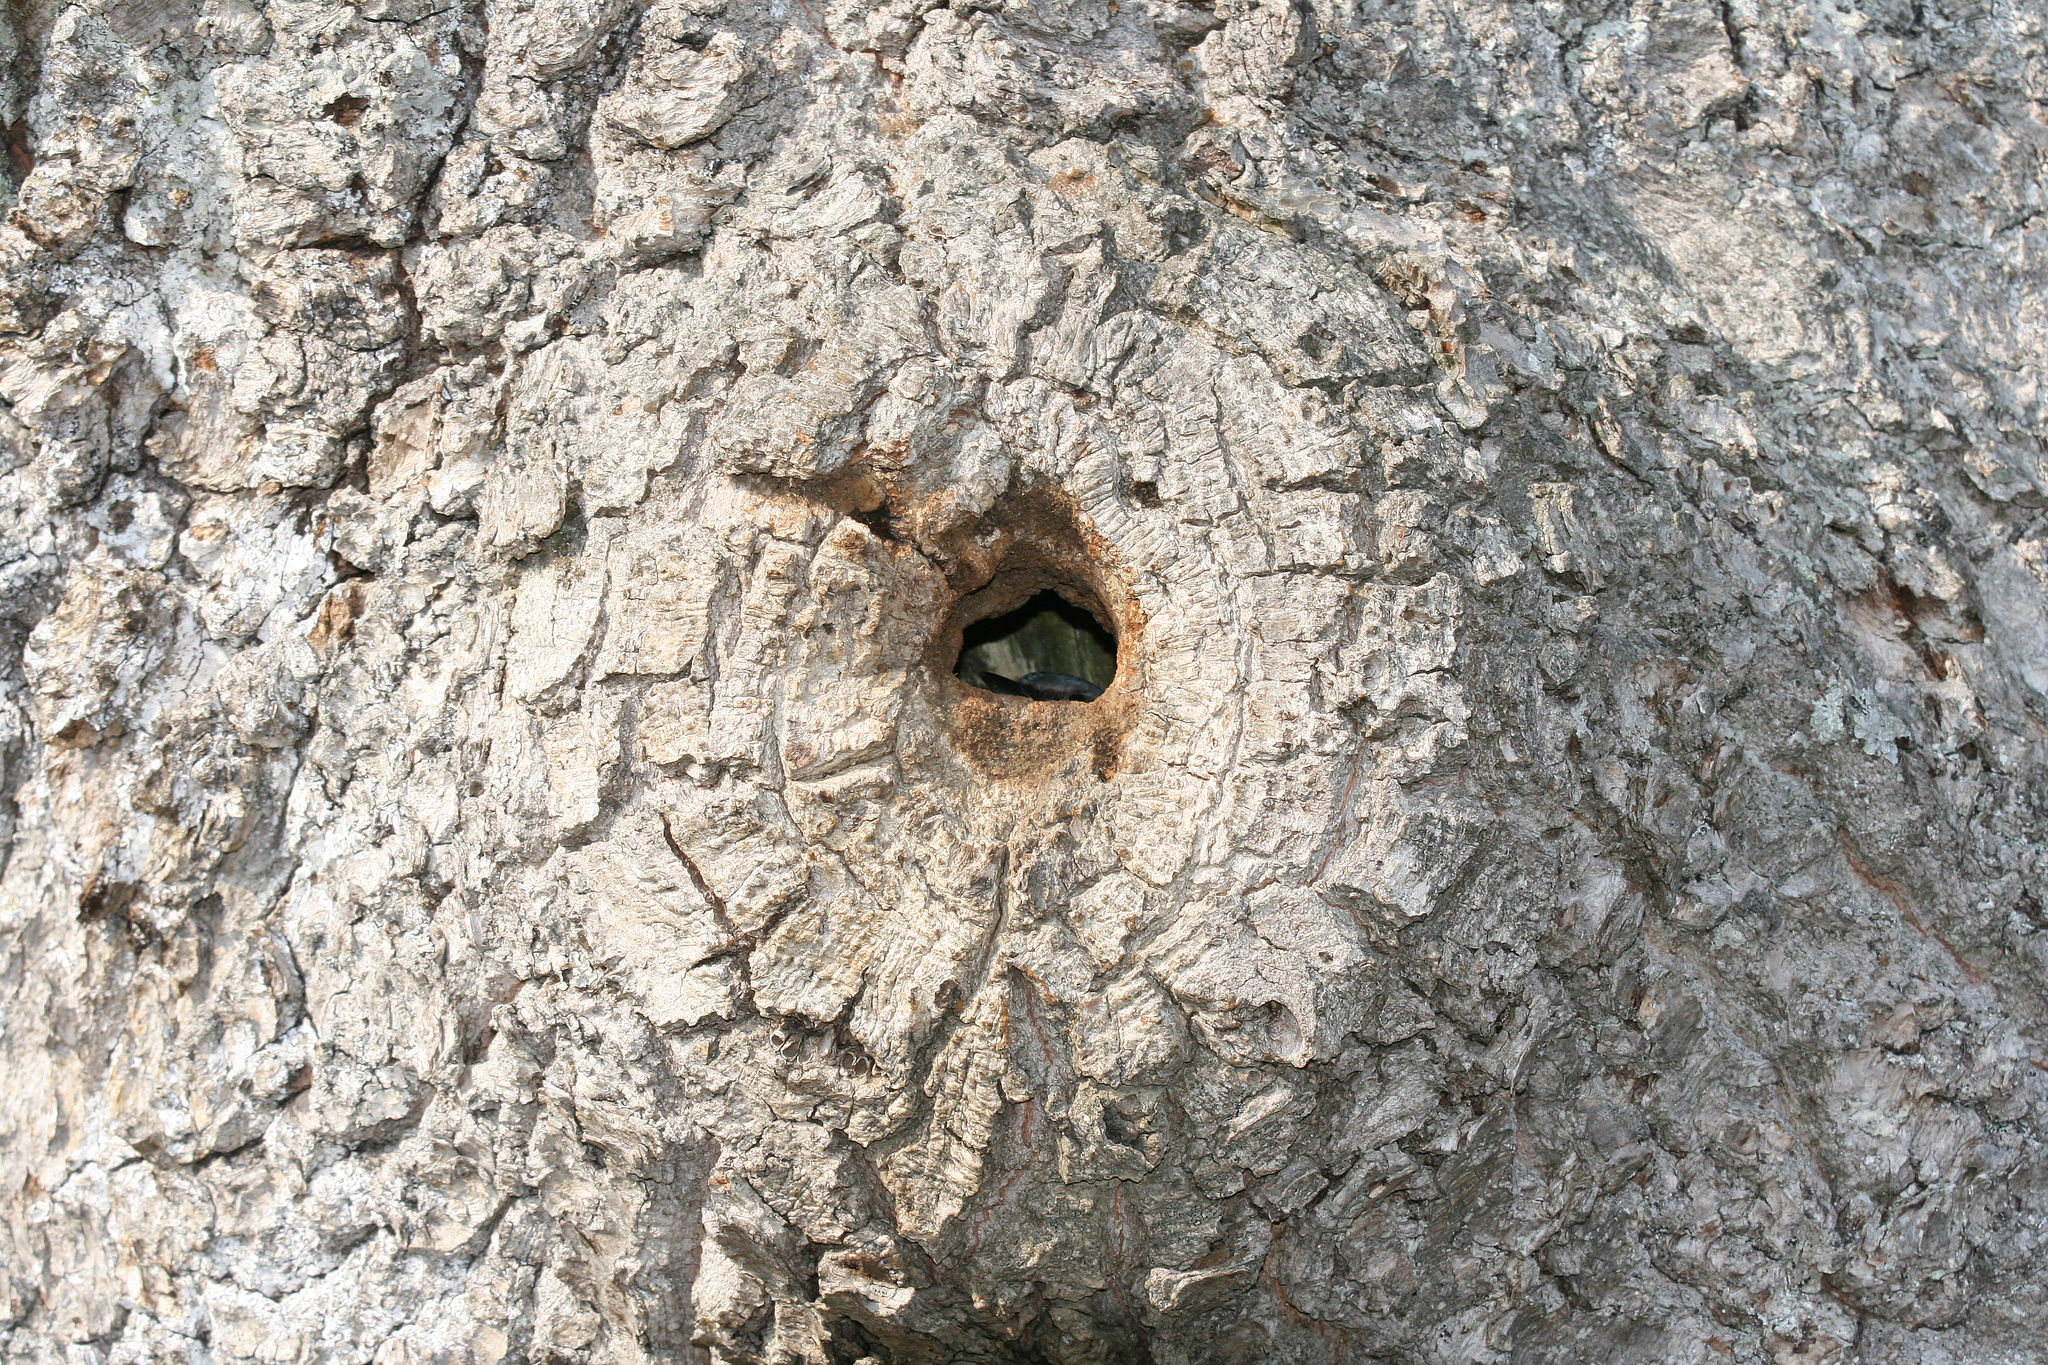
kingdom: Animalia
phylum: Chordata
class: Aves
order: Passeriformes
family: Sittidae
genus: Sitta
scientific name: Sitta europaea
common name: Eurasian nuthatch
